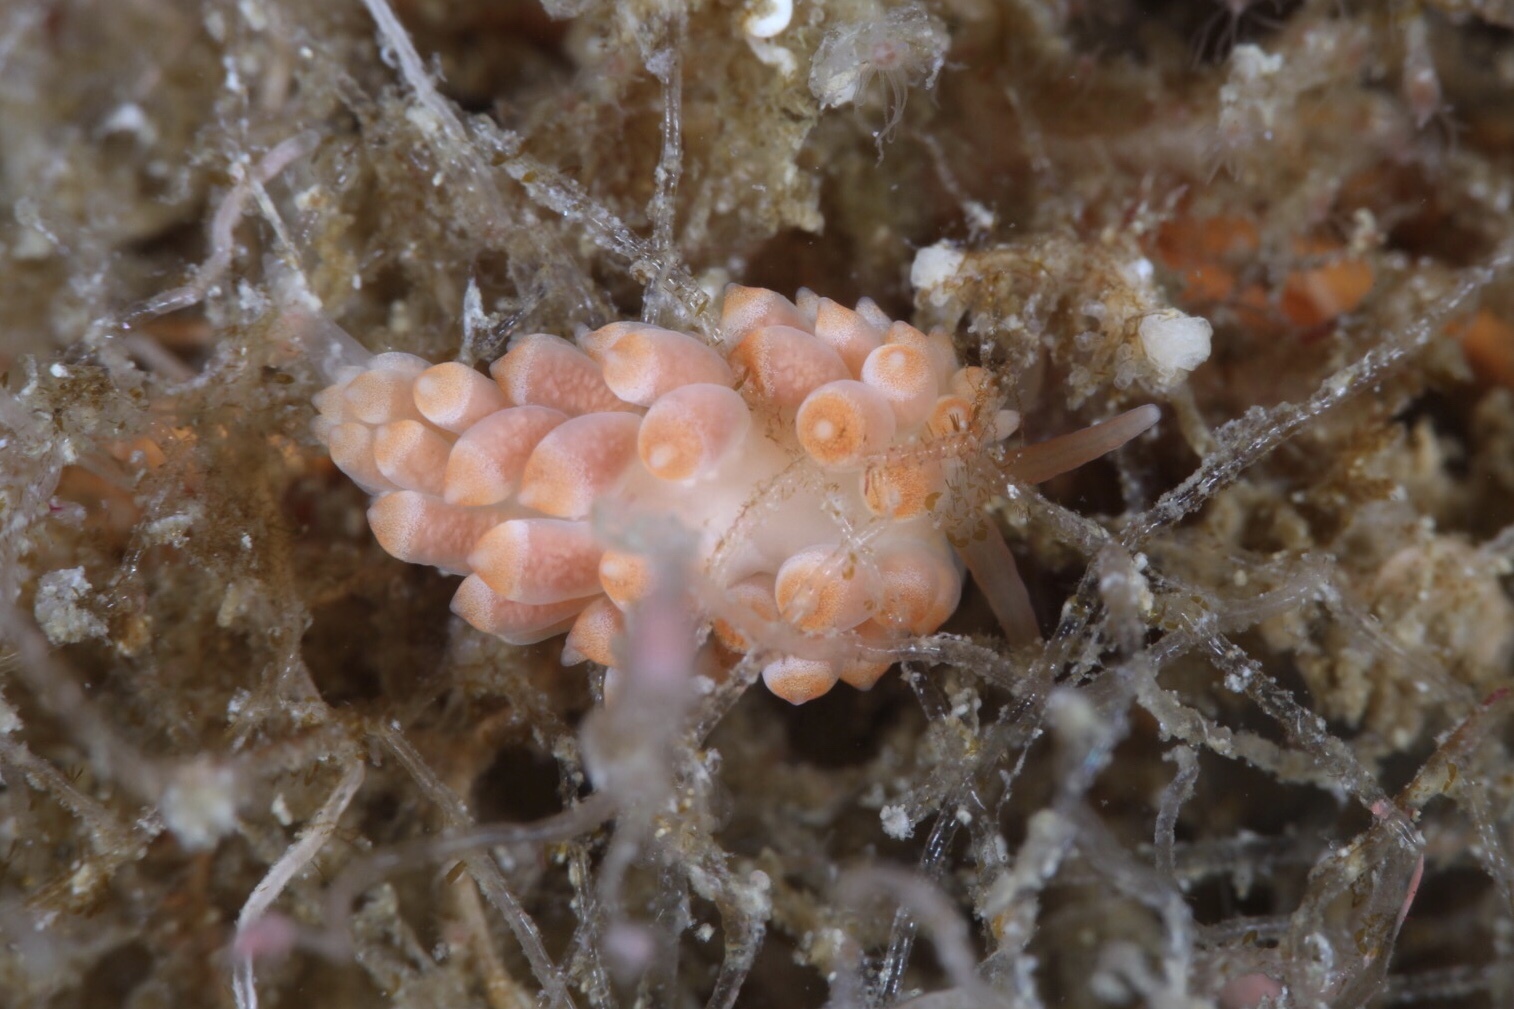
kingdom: Animalia
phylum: Mollusca
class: Gastropoda
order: Nudibranchia
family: Trinchesiidae
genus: Catriona
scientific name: Catriona aurantia
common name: Corange-tip cuthona
